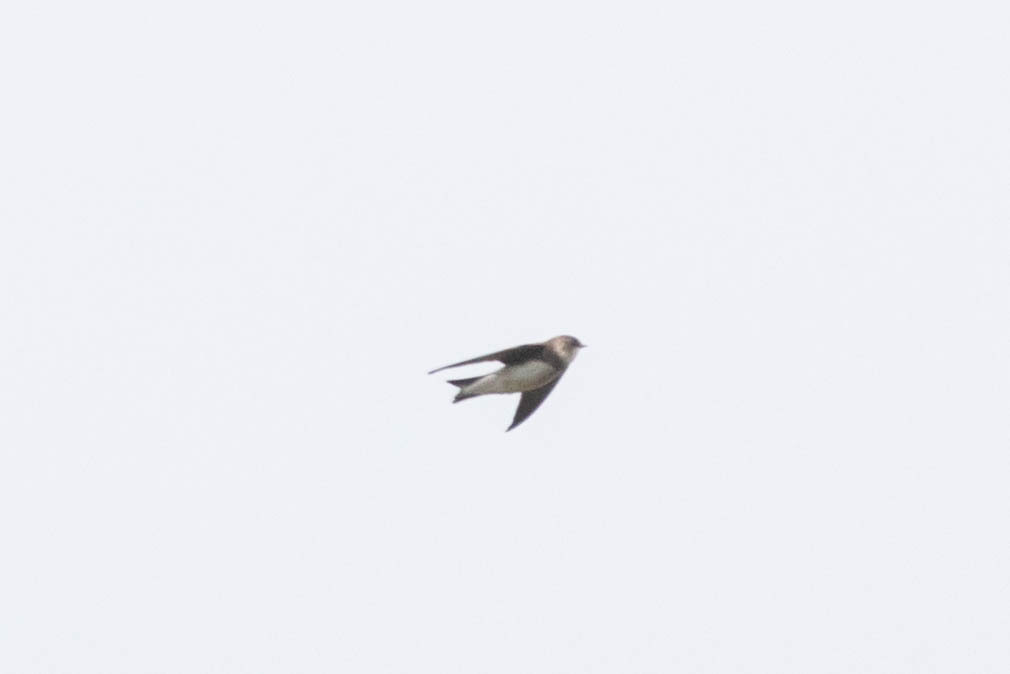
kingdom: Animalia
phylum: Chordata
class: Aves
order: Passeriformes
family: Hirundinidae
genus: Riparia
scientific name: Riparia riparia
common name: Sand martin
